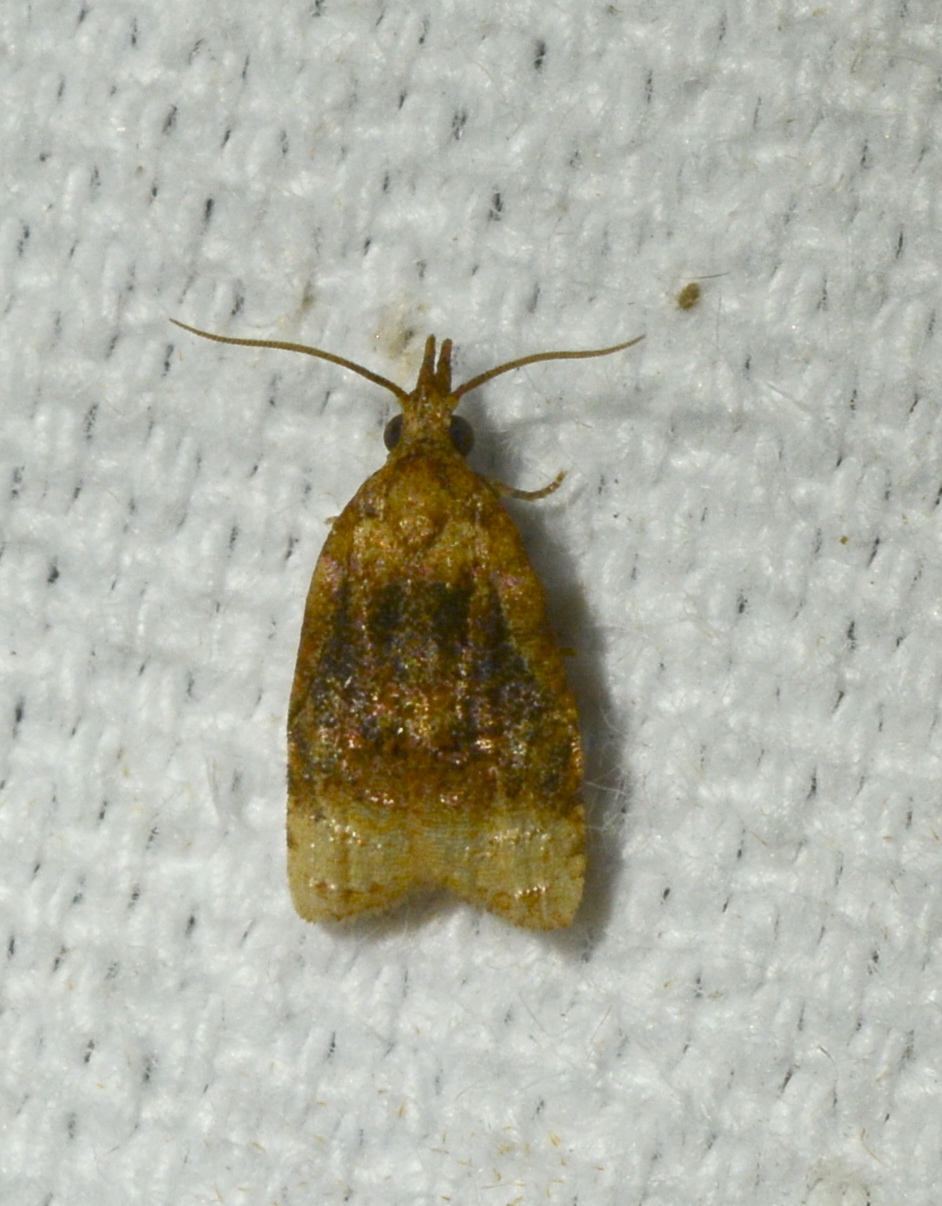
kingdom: Animalia
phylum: Arthropoda
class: Insecta
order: Lepidoptera
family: Tortricidae
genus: Platynota
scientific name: Platynota flavedana
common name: Black-shaded platynota moth
